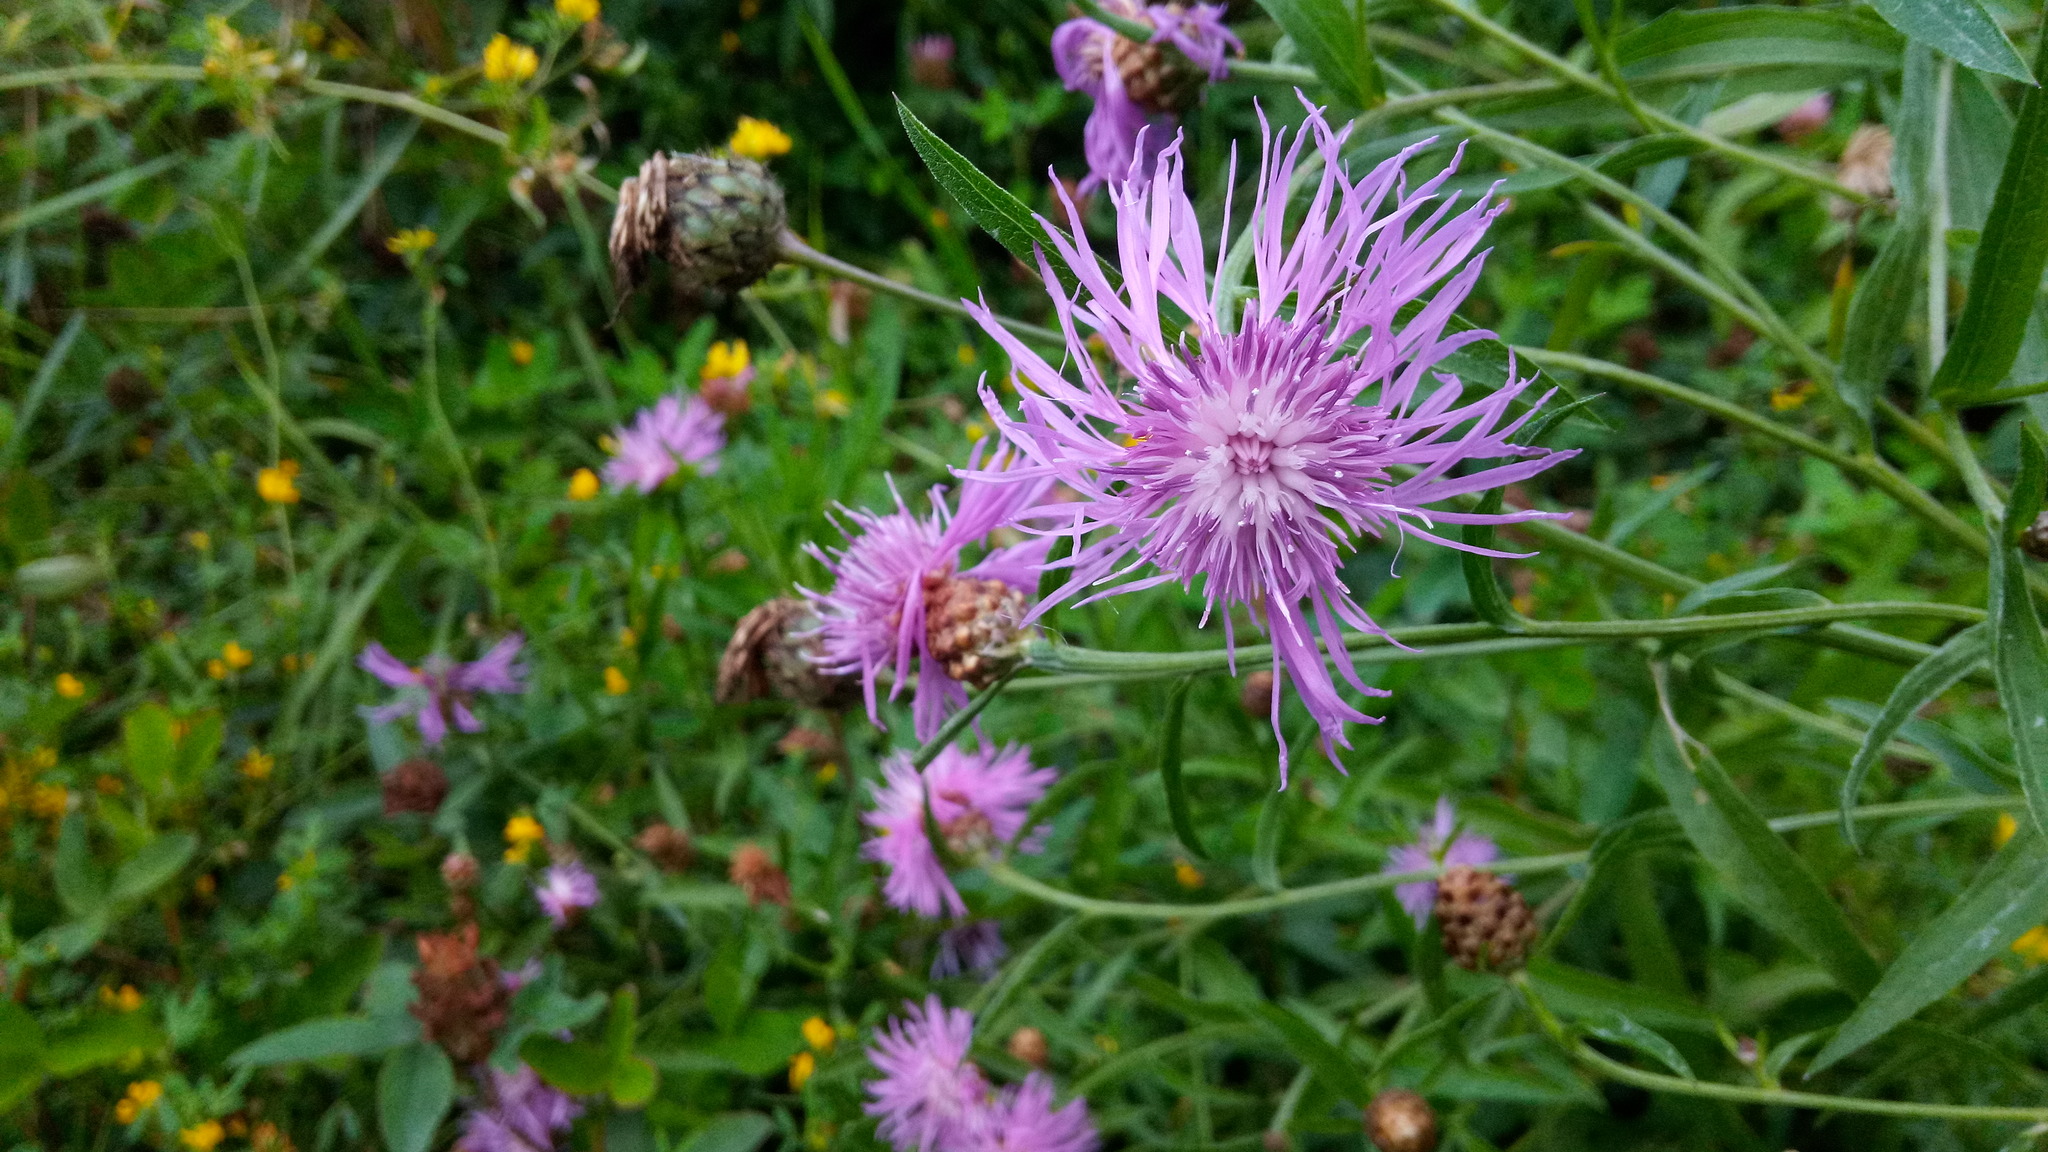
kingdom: Plantae
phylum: Tracheophyta
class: Magnoliopsida
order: Asterales
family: Asteraceae
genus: Centaurea
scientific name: Centaurea scabiosa
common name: Greater knapweed
